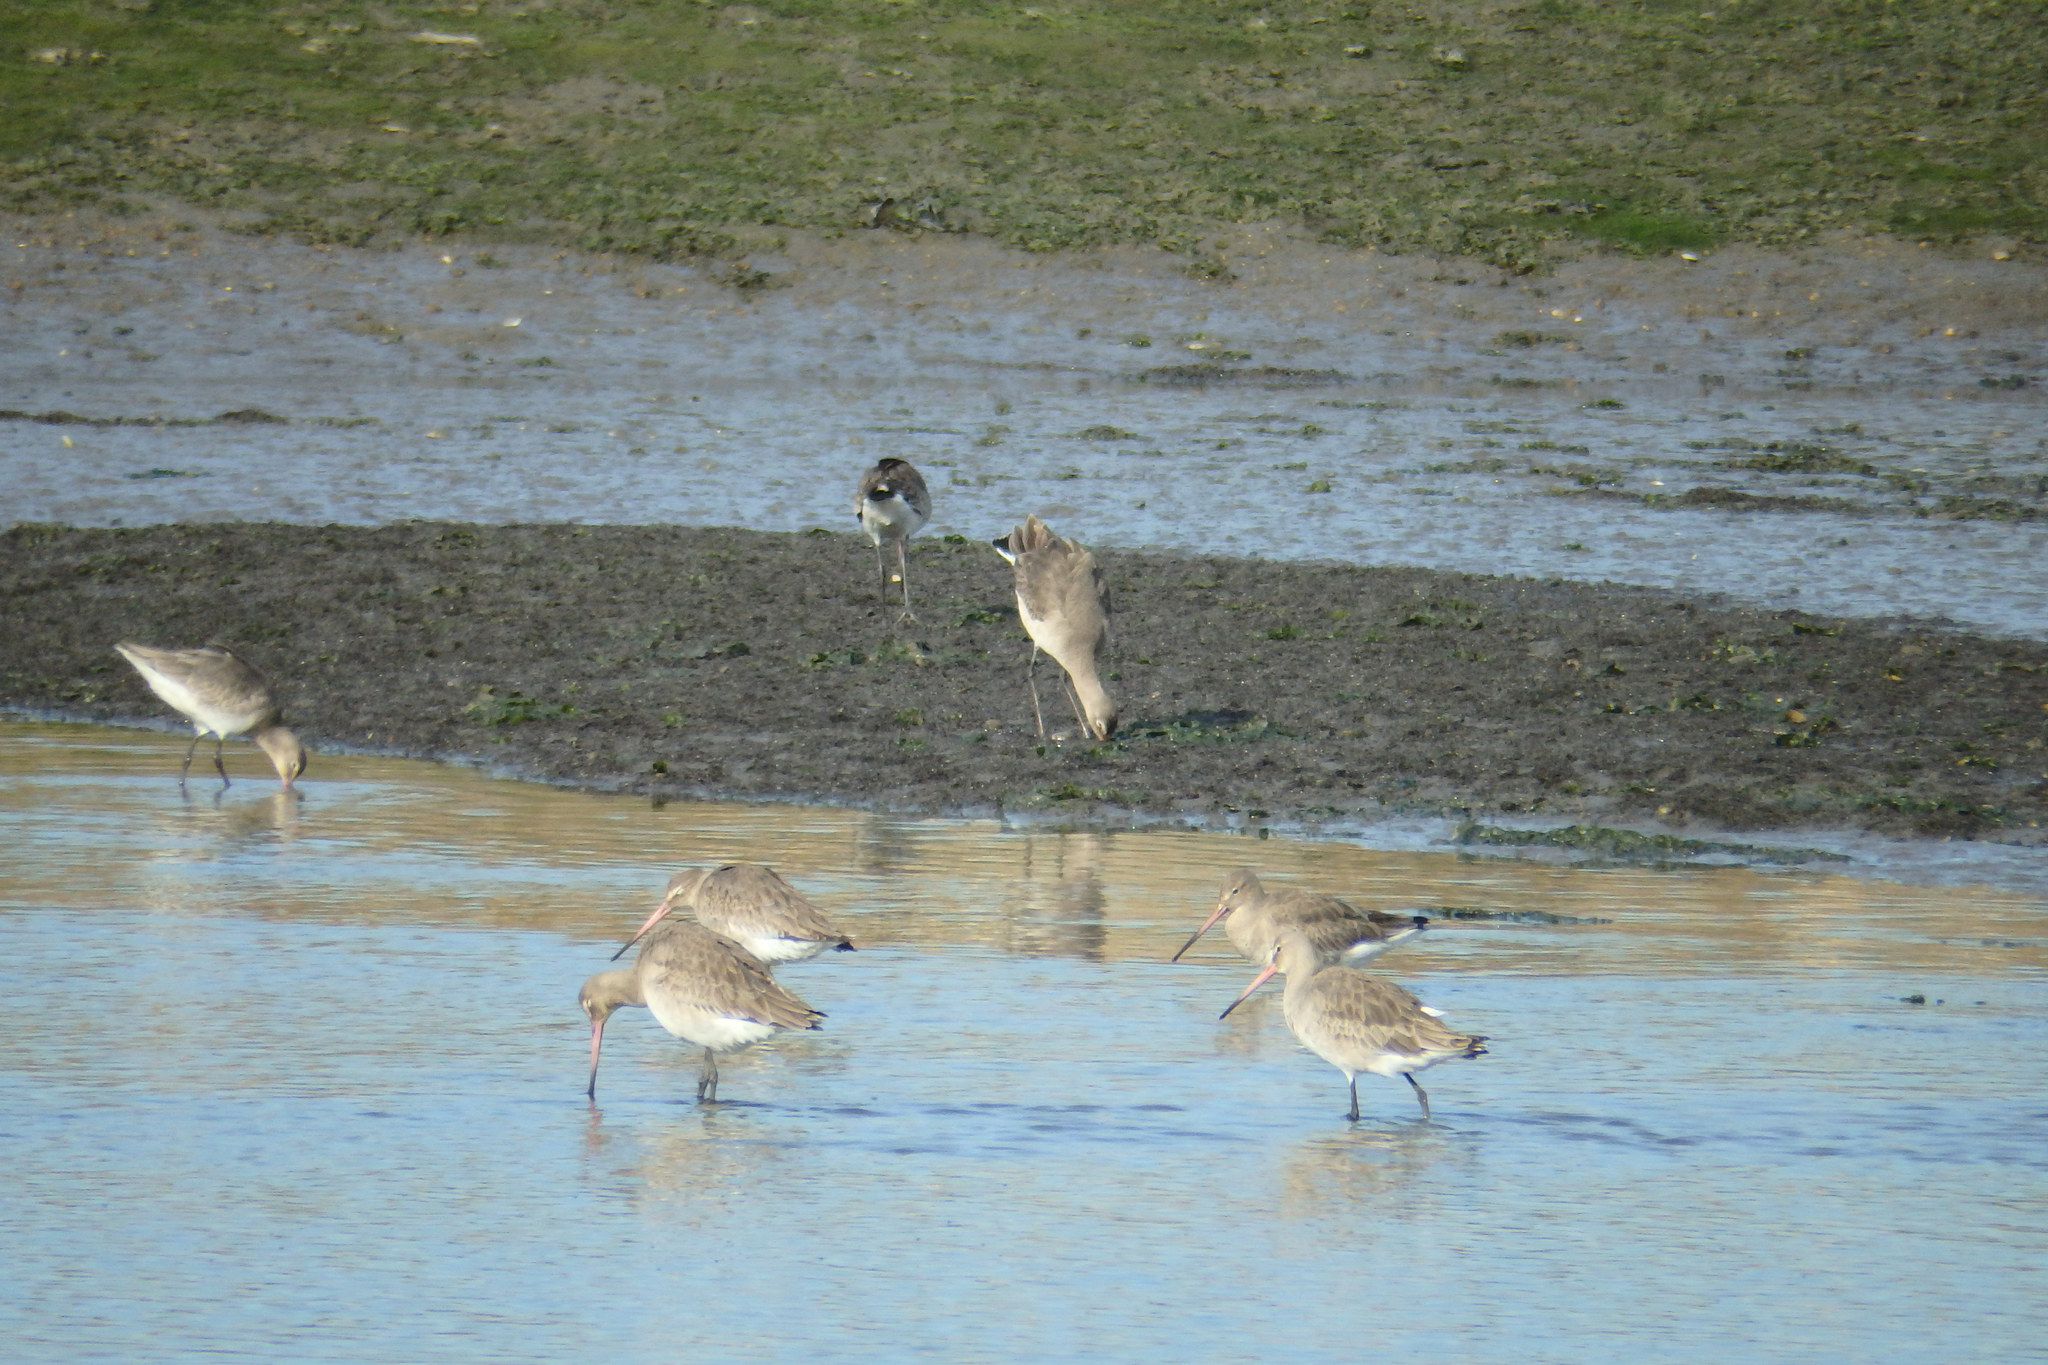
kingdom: Animalia
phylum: Chordata
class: Aves
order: Charadriiformes
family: Scolopacidae
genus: Limosa
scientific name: Limosa limosa
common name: Black-tailed godwit
